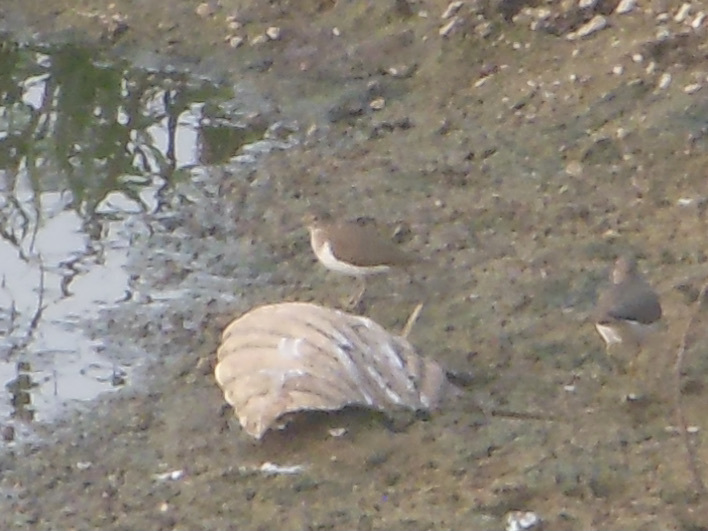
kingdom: Animalia
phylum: Chordata
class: Aves
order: Charadriiformes
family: Scolopacidae
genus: Actitis
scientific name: Actitis hypoleucos
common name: Common sandpiper
